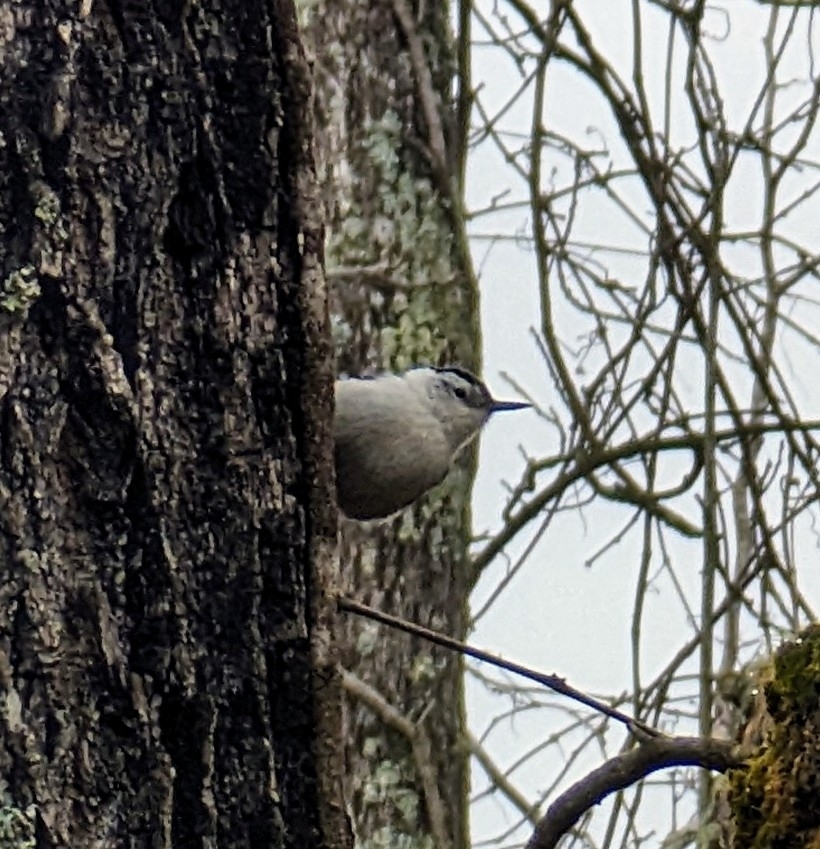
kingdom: Animalia
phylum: Chordata
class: Aves
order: Passeriformes
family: Sittidae
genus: Sitta
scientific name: Sitta carolinensis
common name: White-breasted nuthatch
